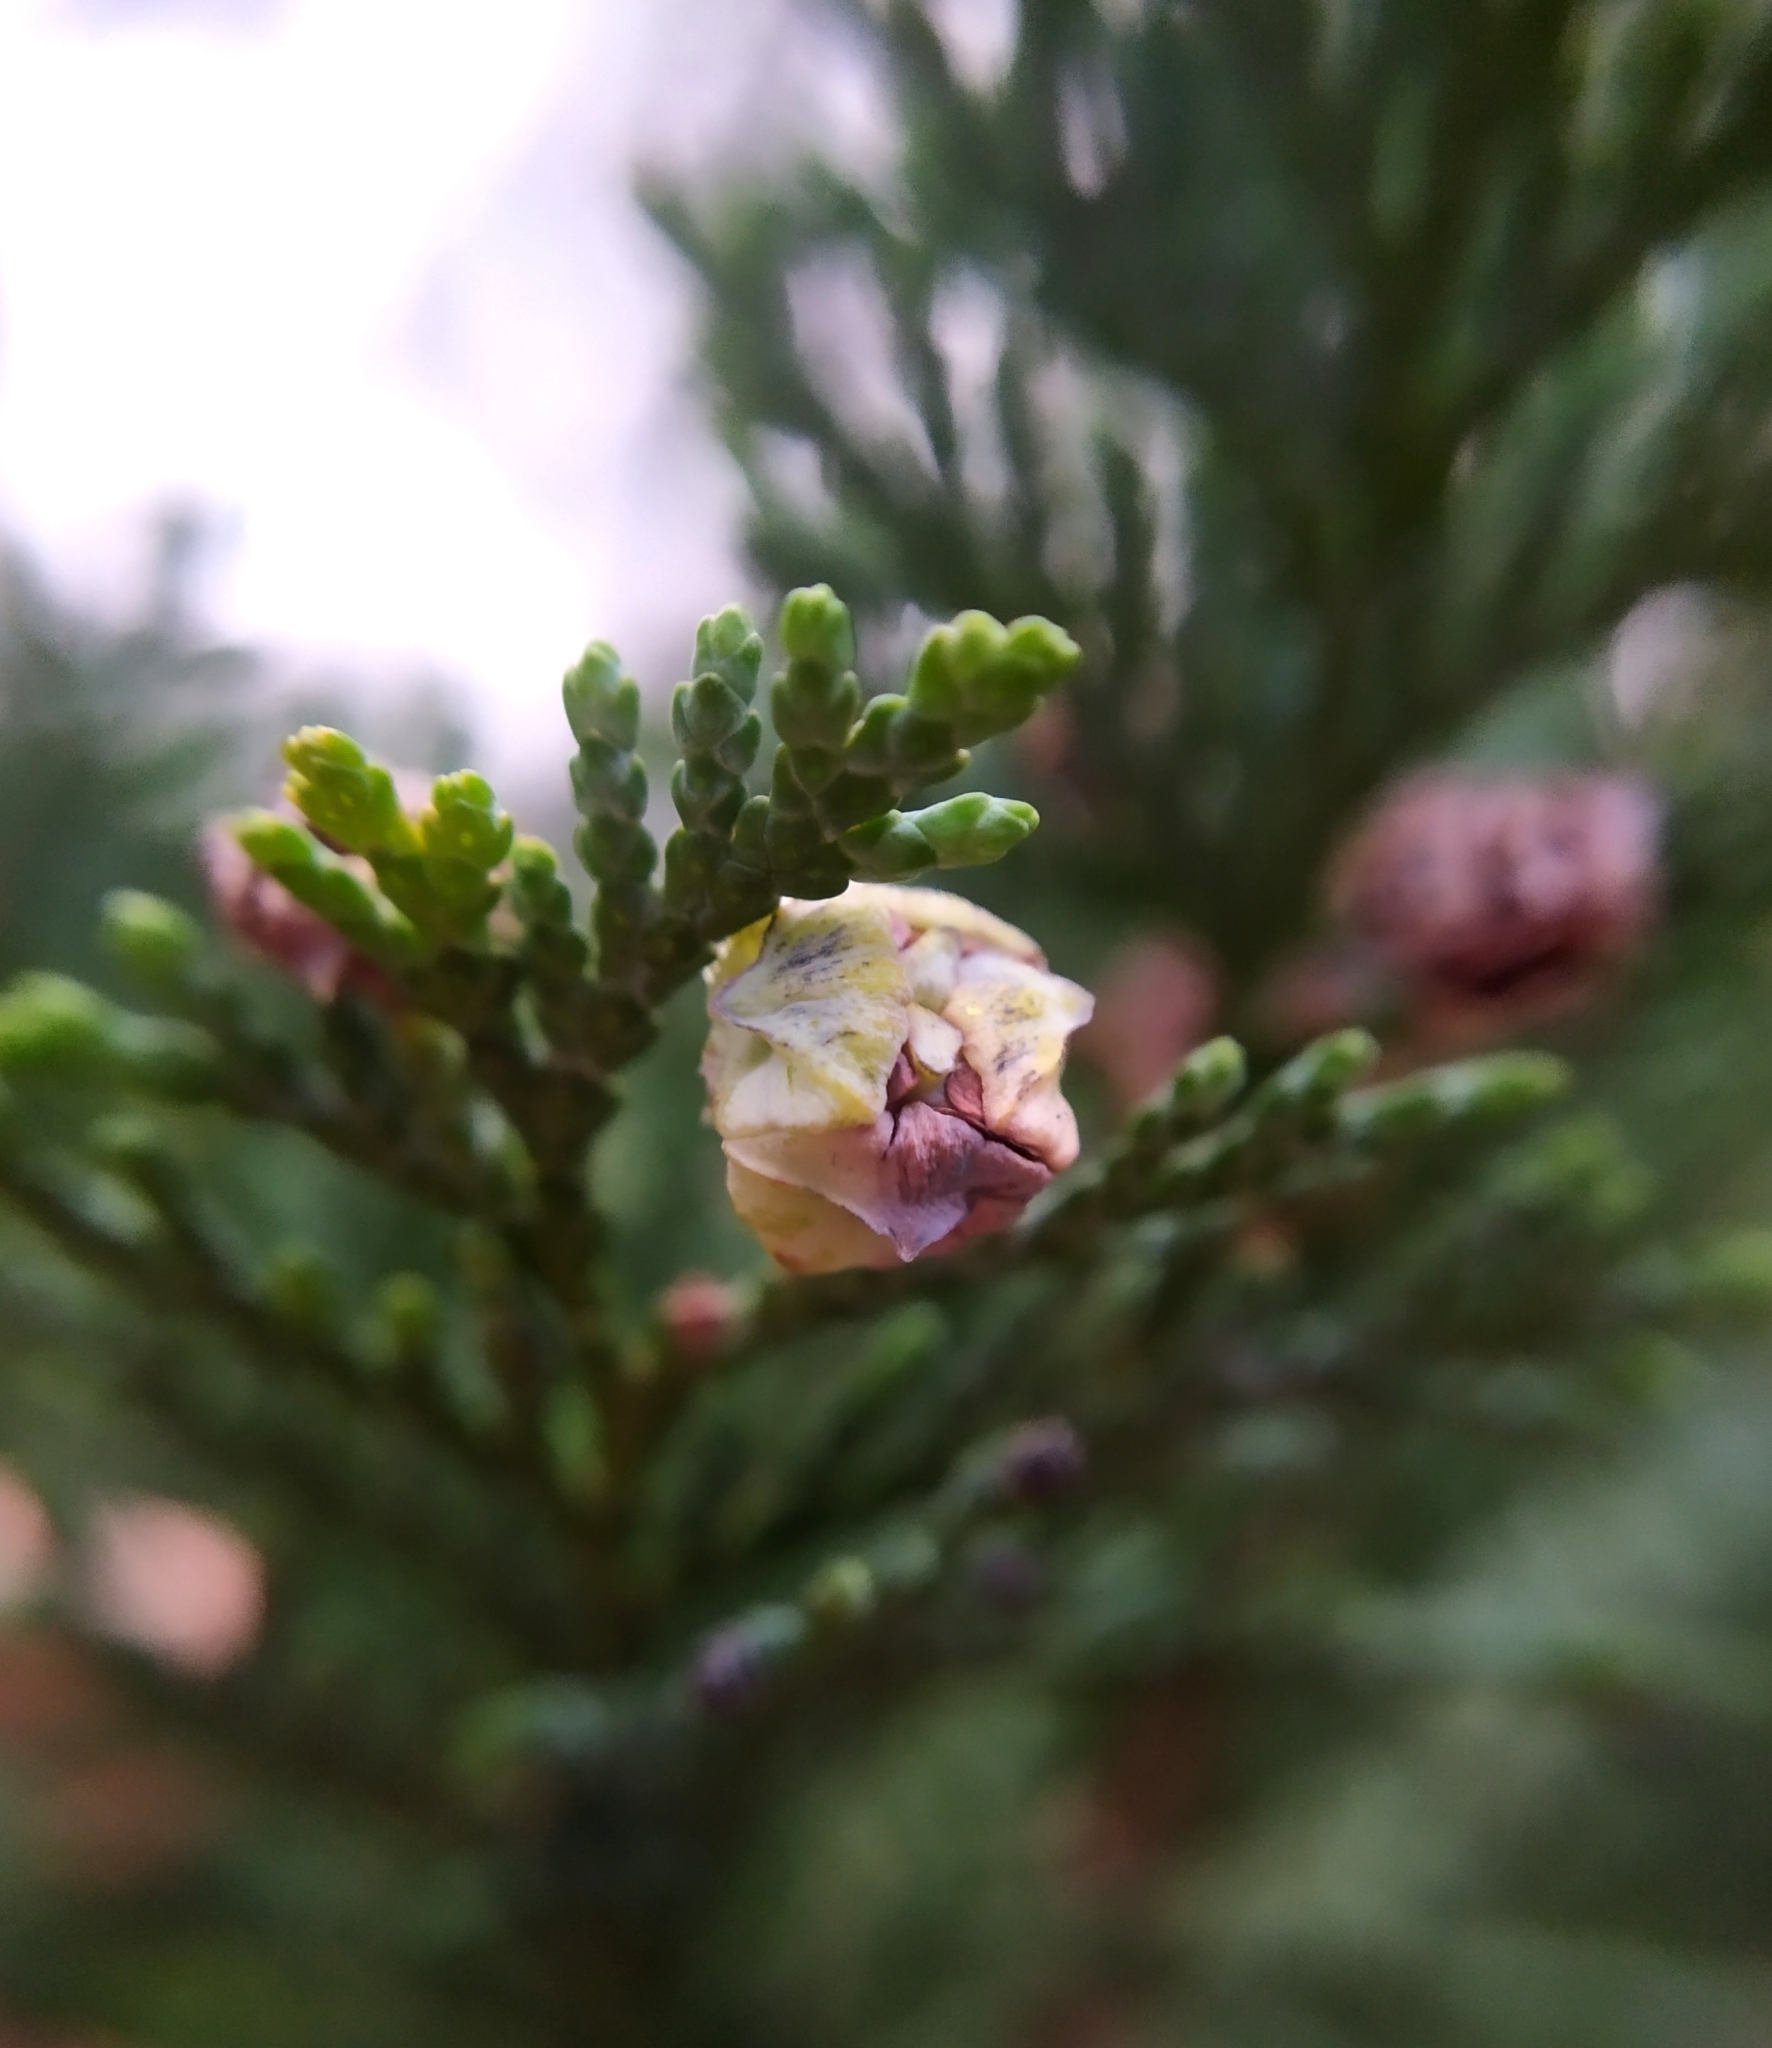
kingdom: Animalia
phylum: Arthropoda
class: Insecta
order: Diptera
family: Cecidomyiidae
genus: Cupressatia
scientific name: Cupressatia siskiyou
